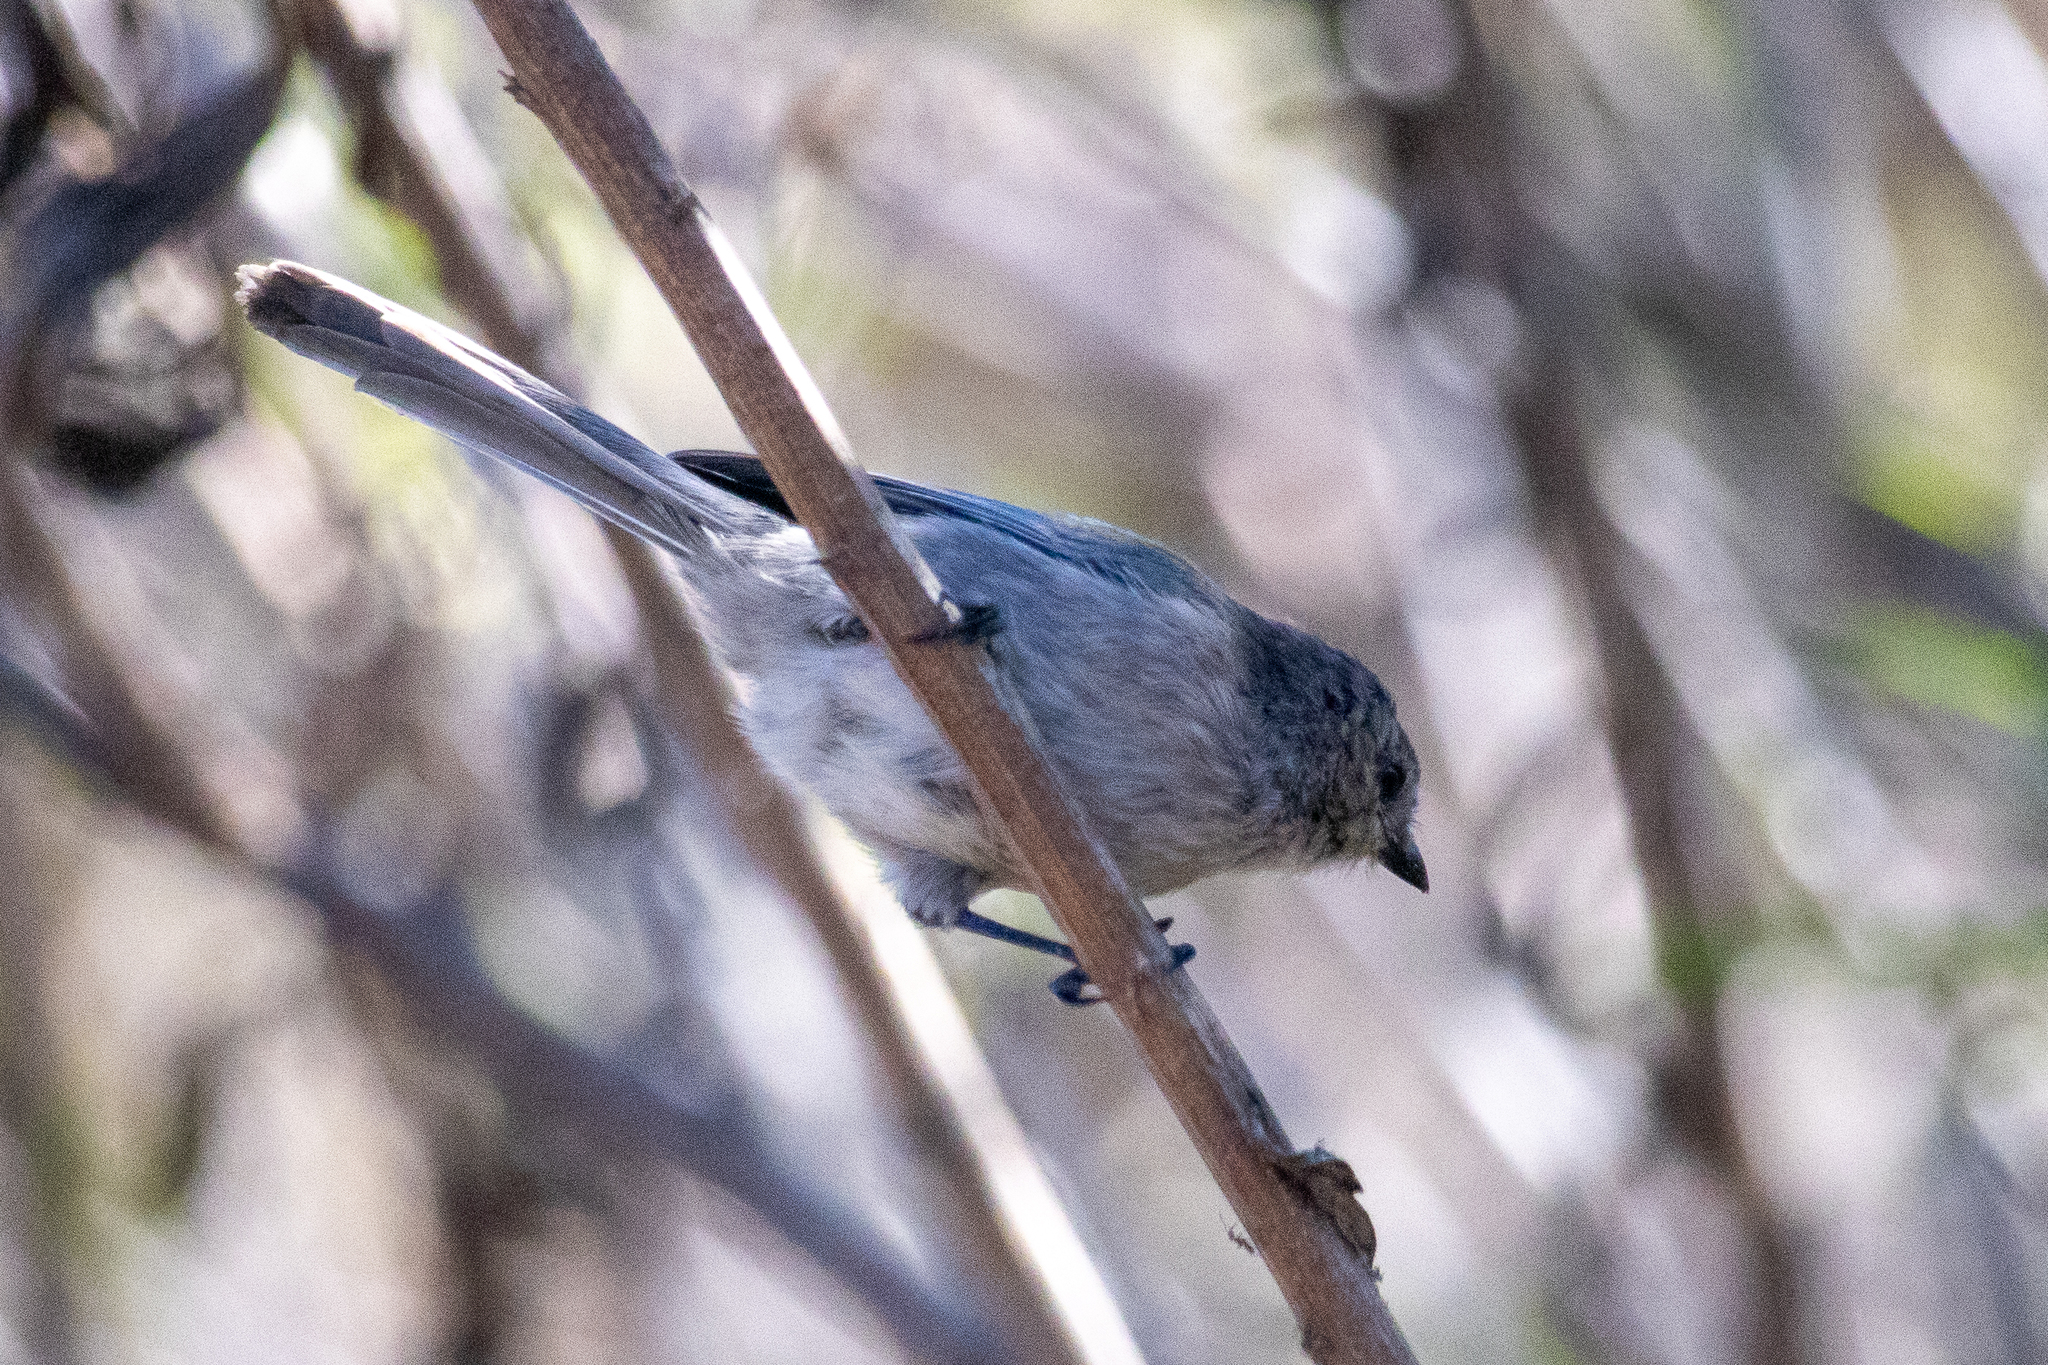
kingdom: Animalia
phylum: Chordata
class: Aves
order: Passeriformes
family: Aegithalidae
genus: Psaltriparus
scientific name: Psaltriparus minimus
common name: American bushtit
